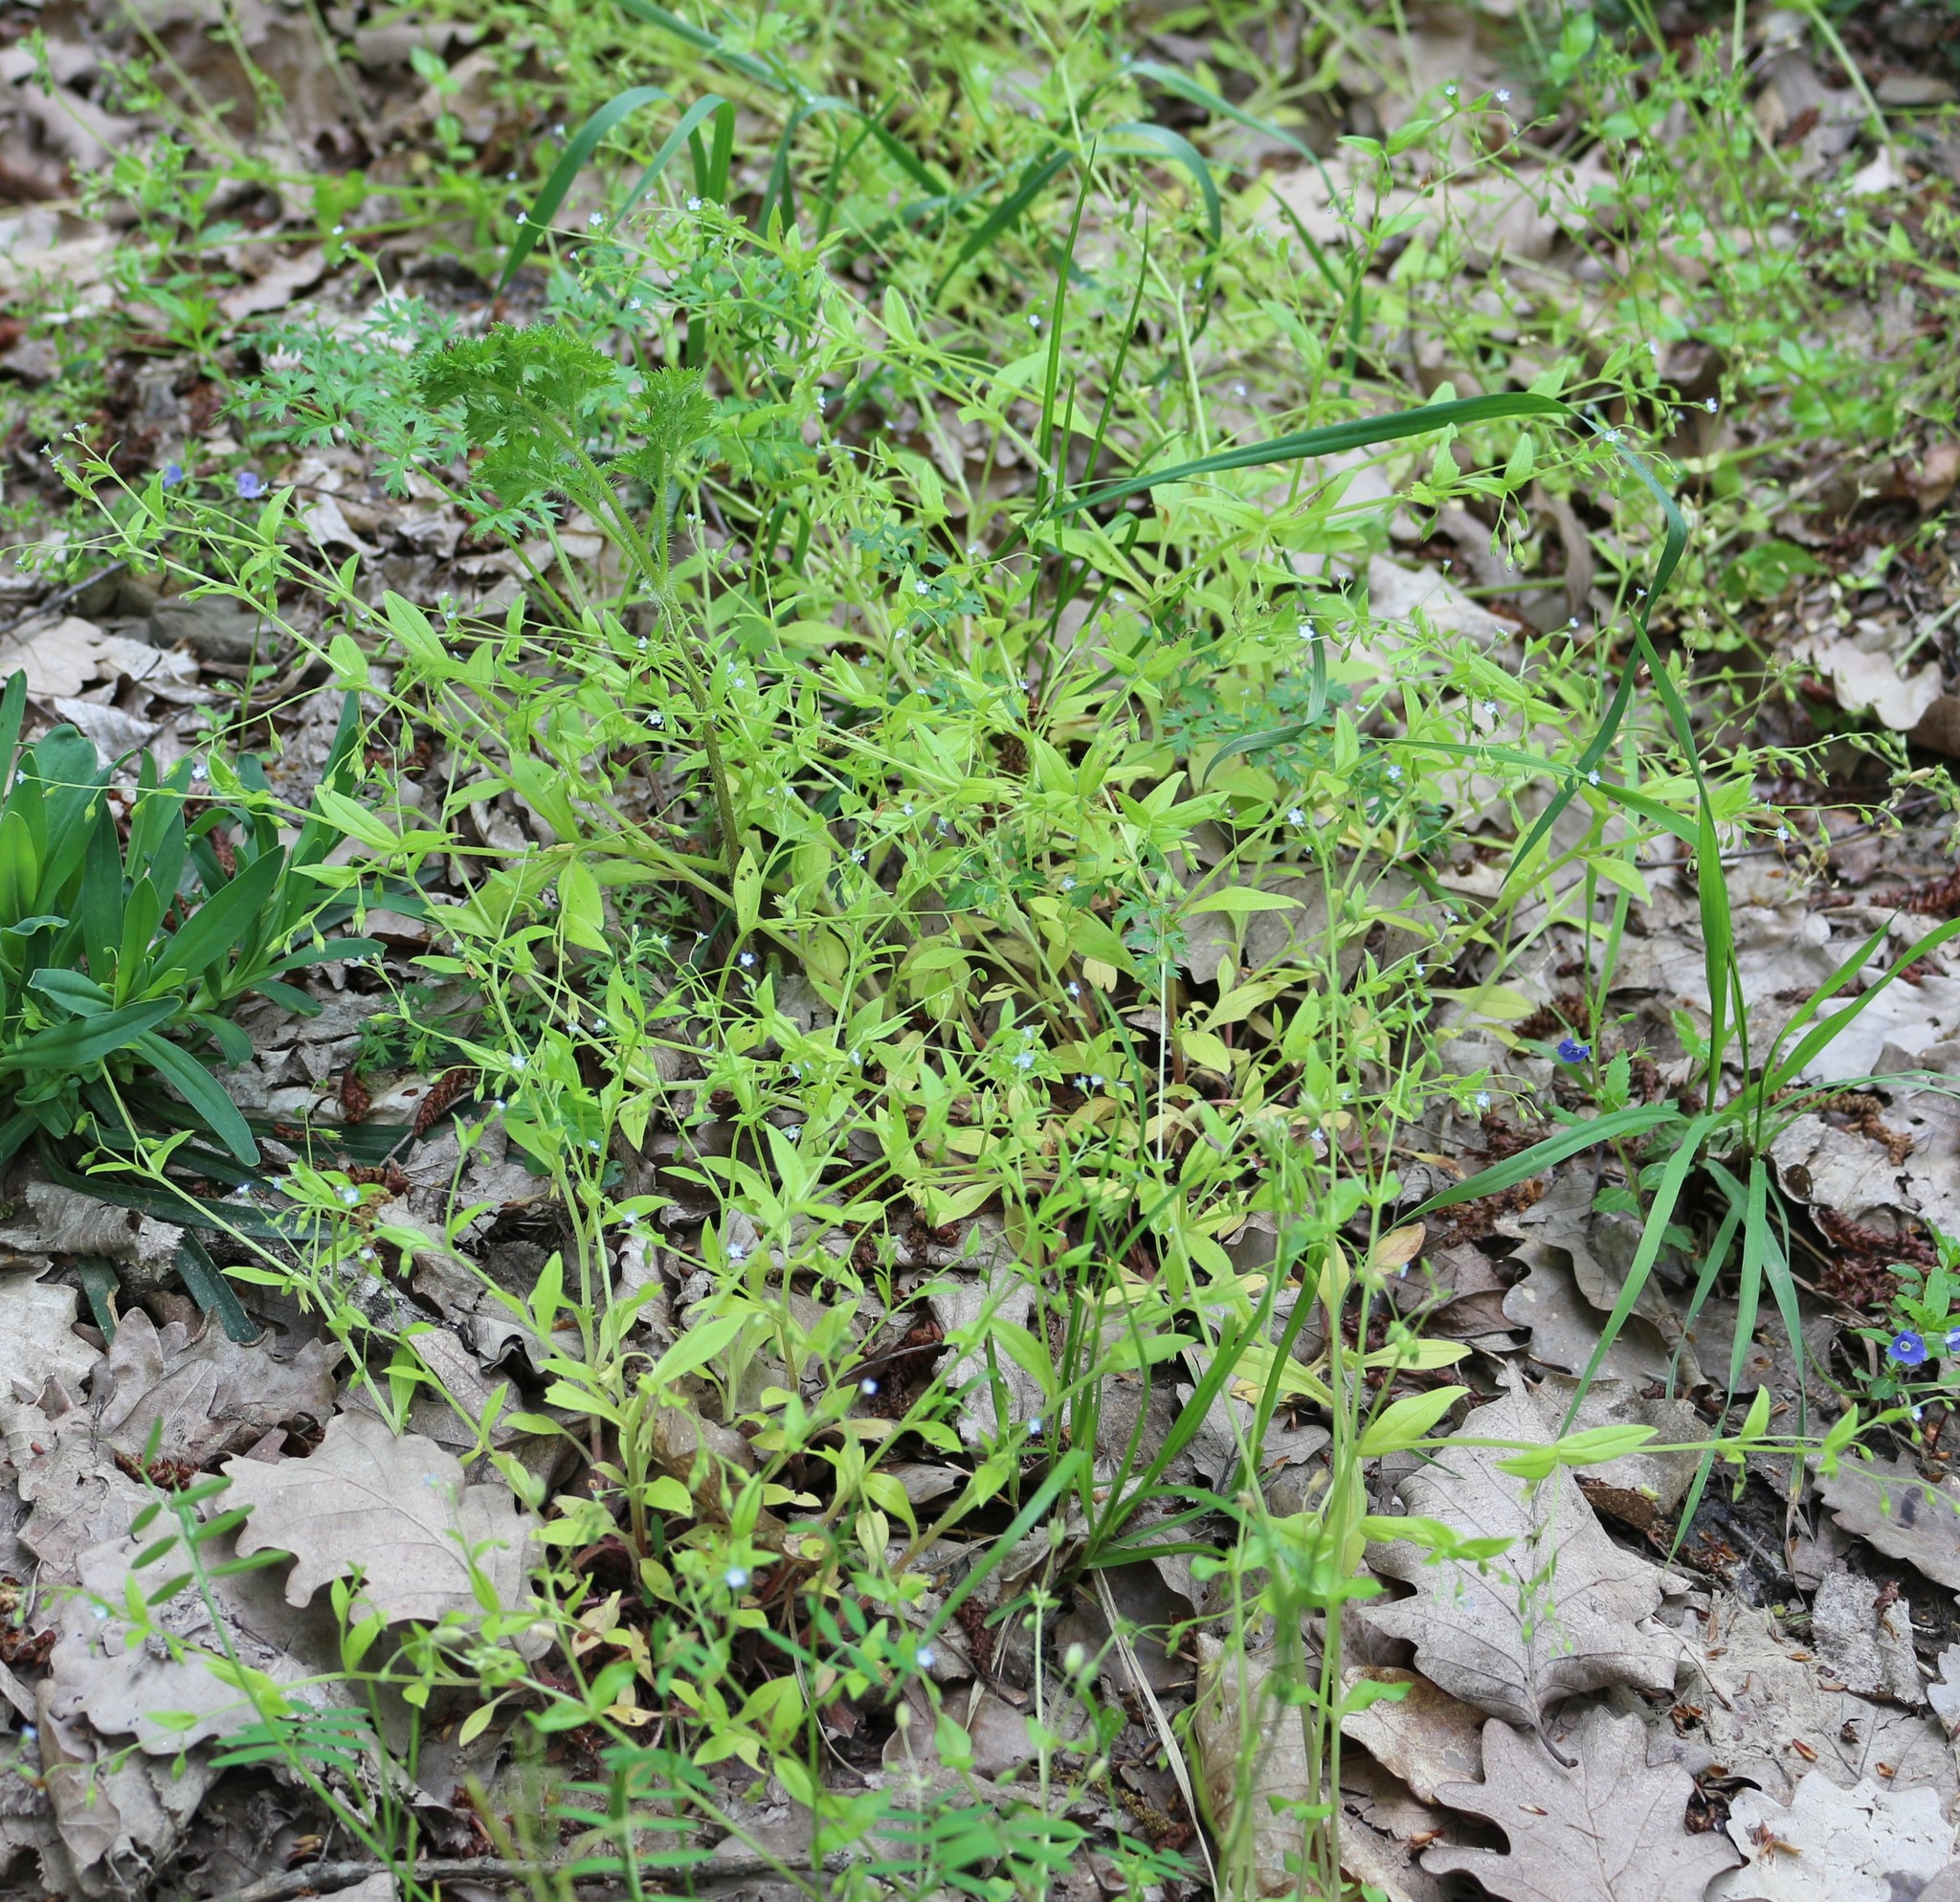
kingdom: Plantae
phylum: Tracheophyta
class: Magnoliopsida
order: Boraginales
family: Boraginaceae
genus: Myosotis
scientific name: Myosotis sparsiflora
